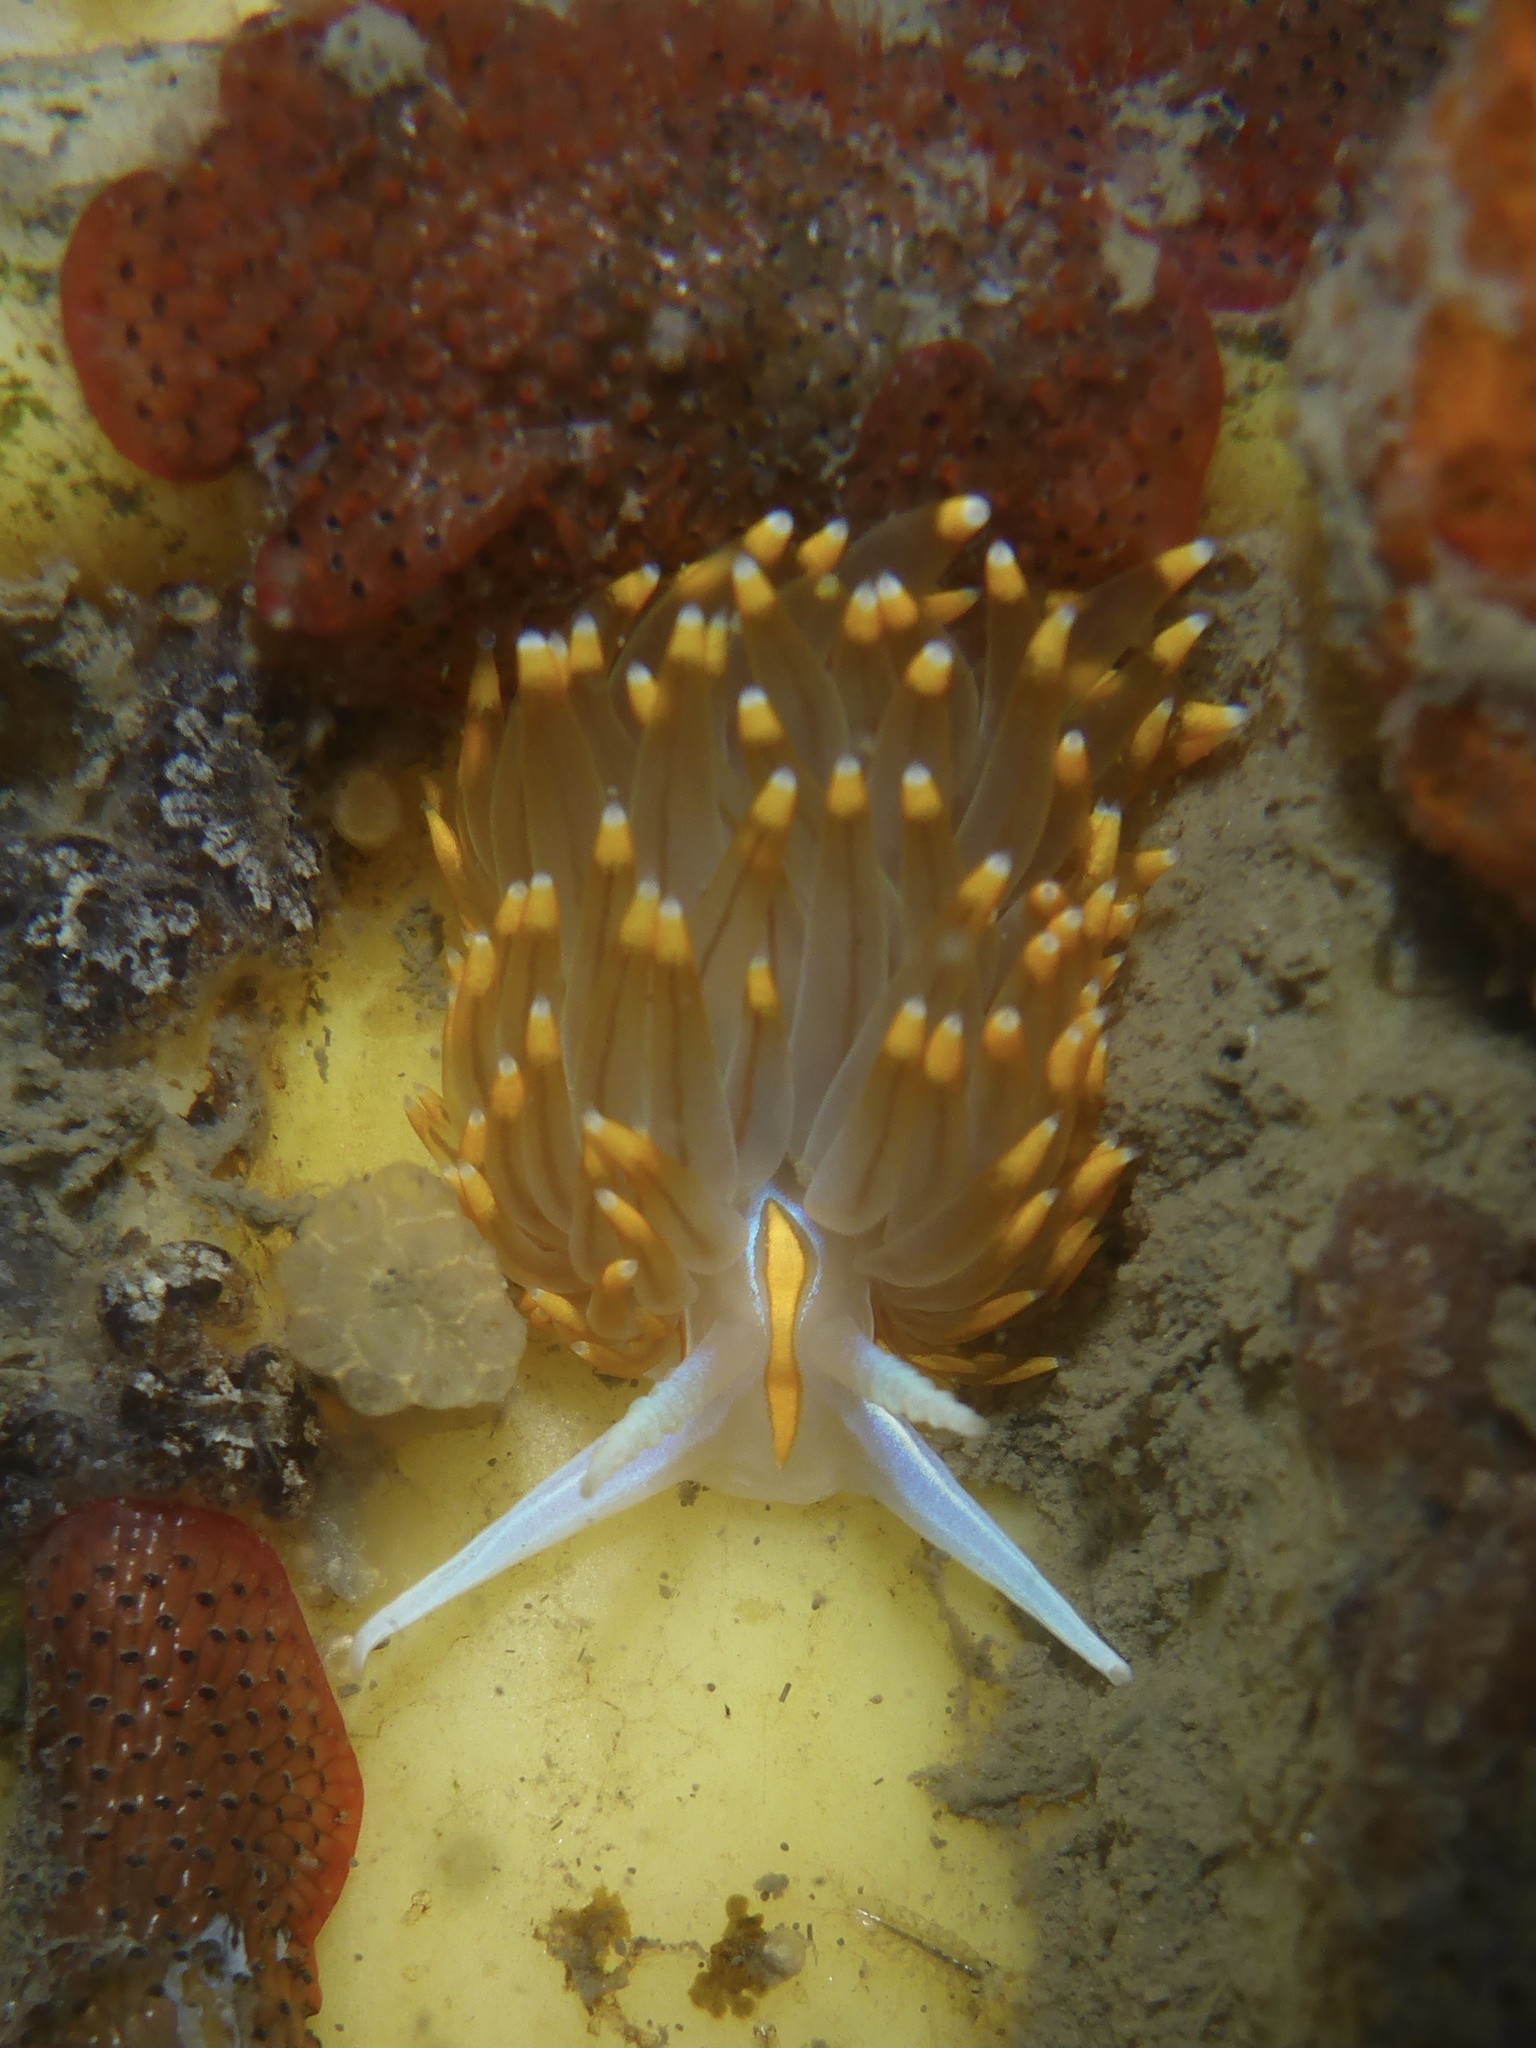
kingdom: Animalia
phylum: Mollusca
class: Gastropoda
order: Nudibranchia
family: Myrrhinidae
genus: Hermissenda
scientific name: Hermissenda opalescens
